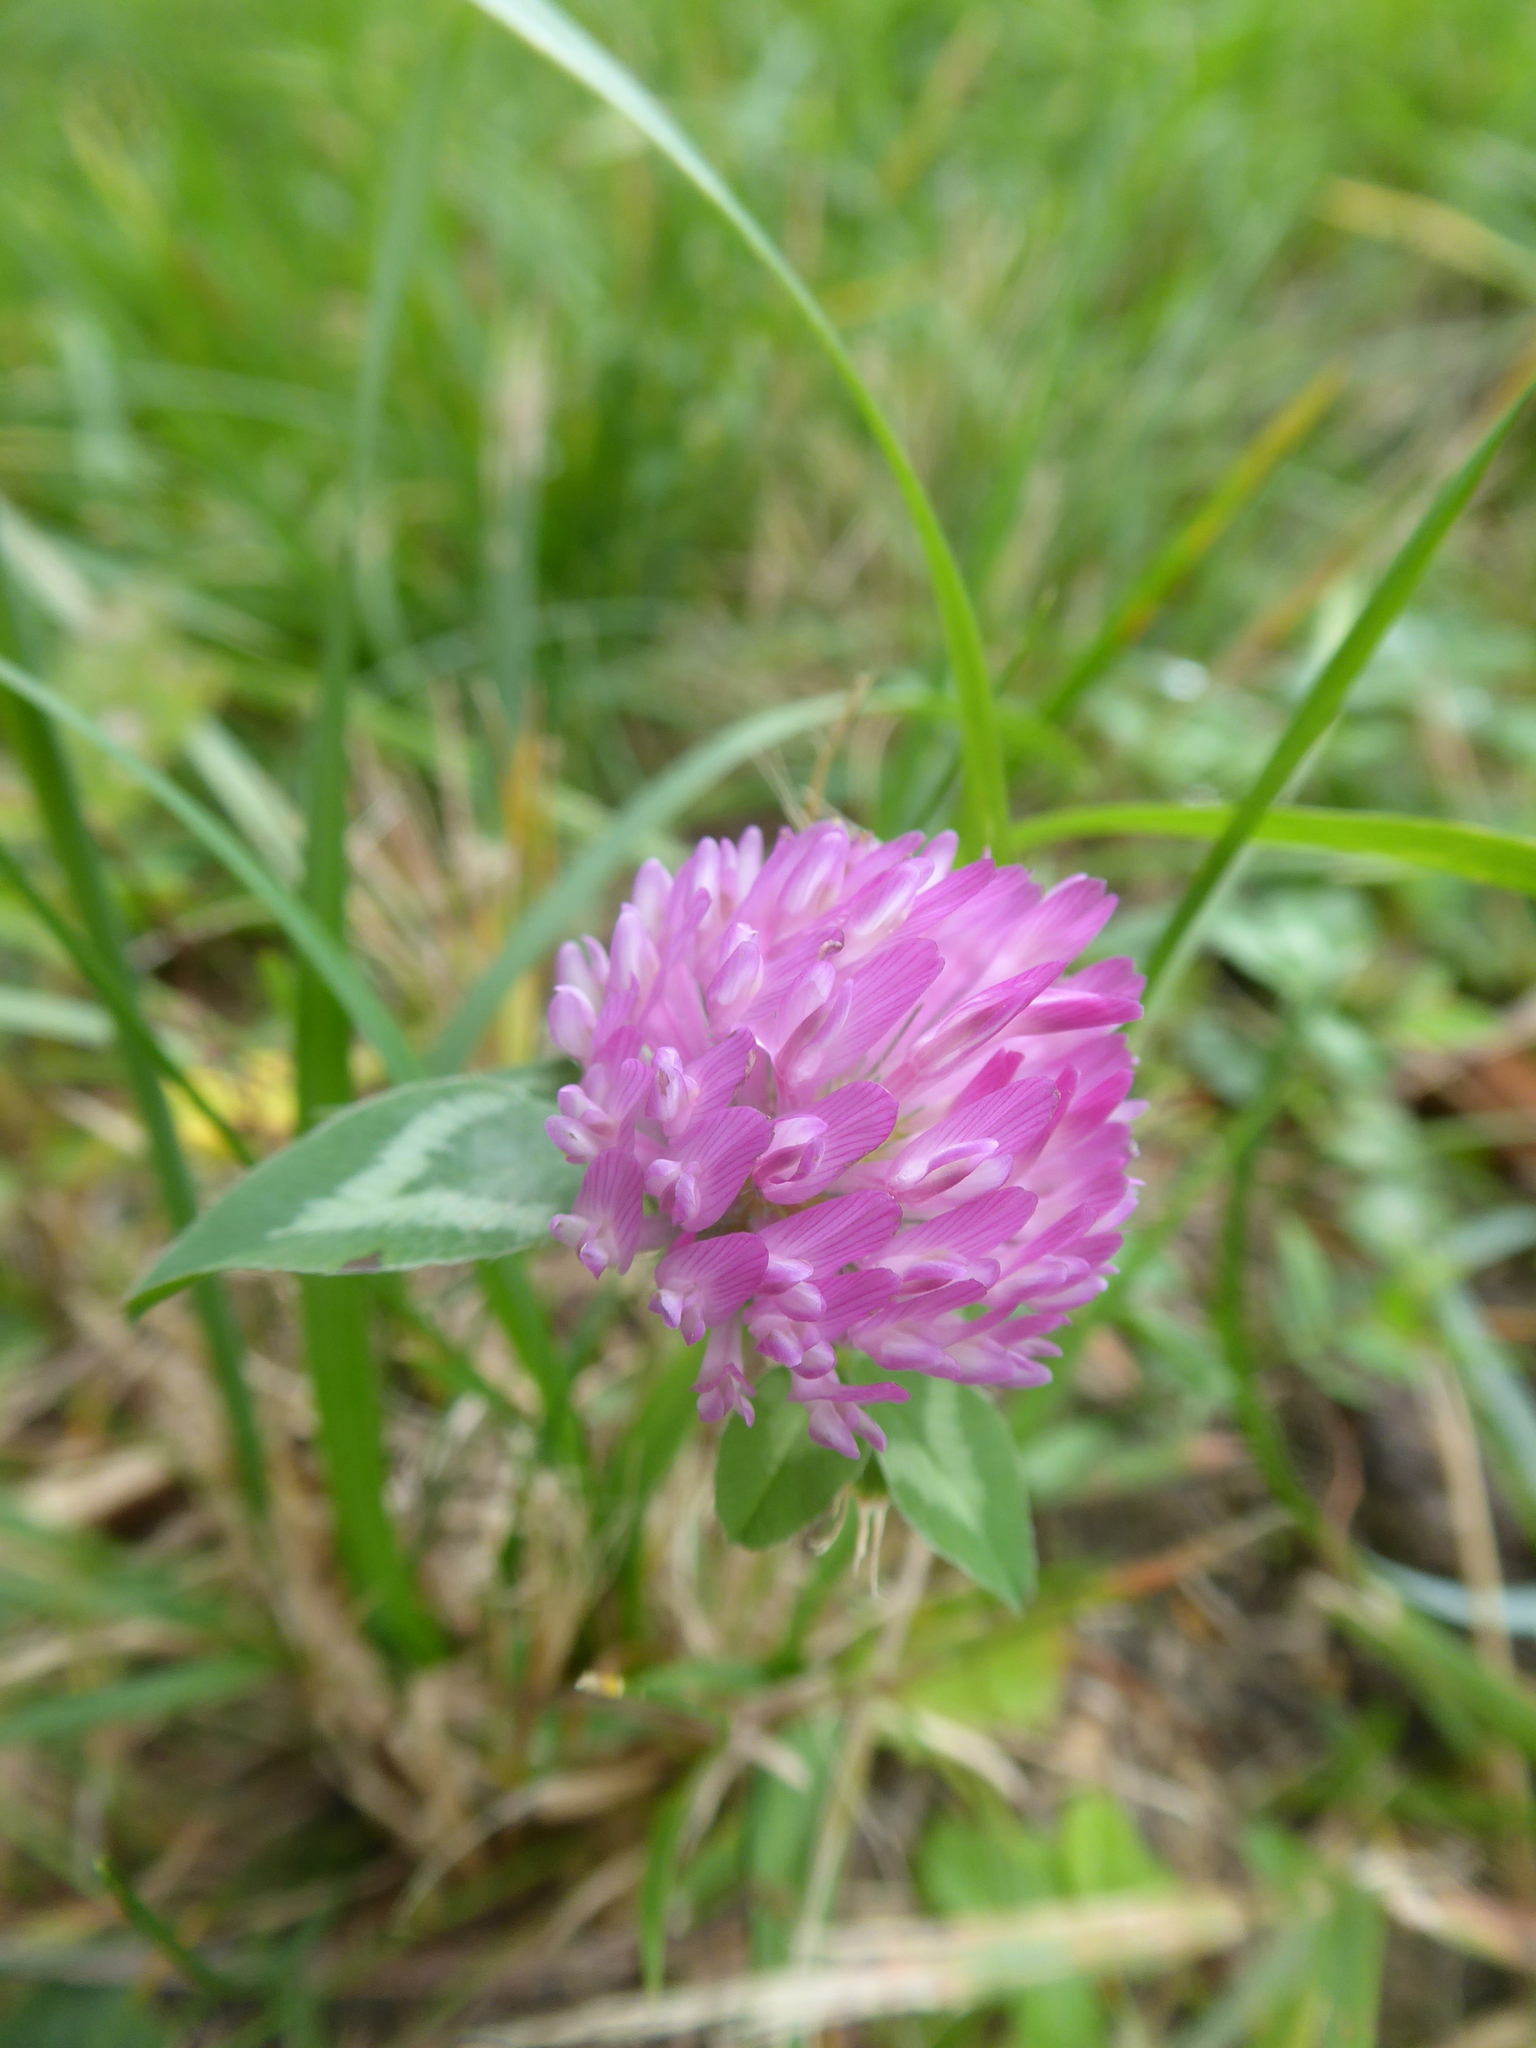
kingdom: Plantae
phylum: Tracheophyta
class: Magnoliopsida
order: Fabales
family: Fabaceae
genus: Trifolium
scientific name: Trifolium pratense
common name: Red clover
